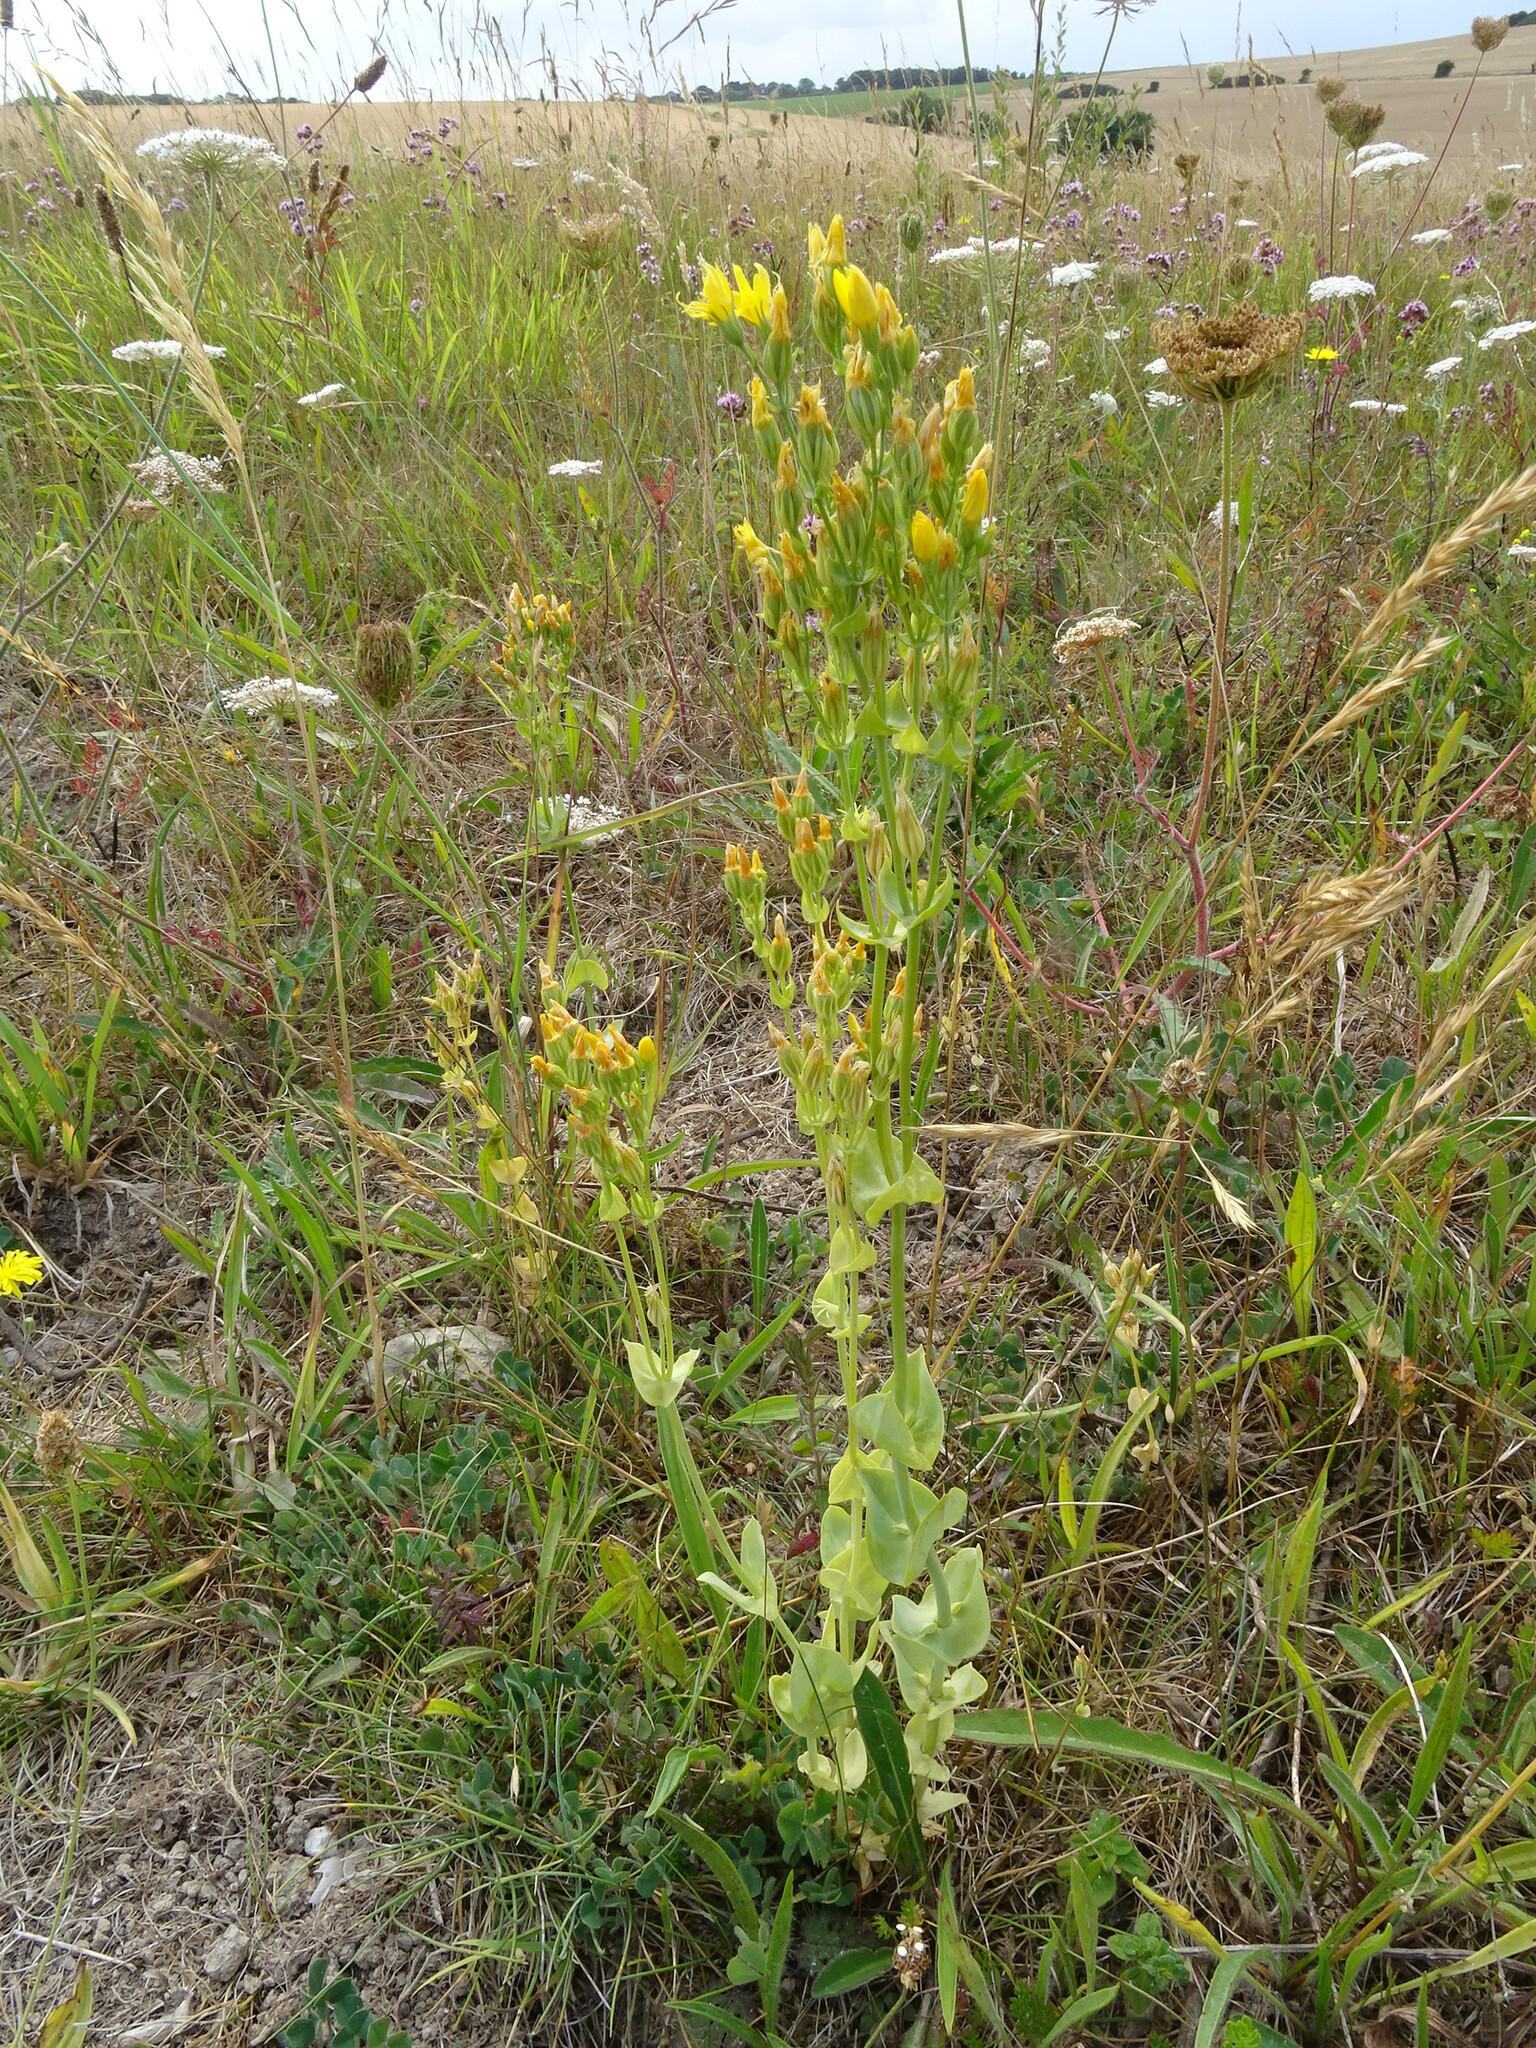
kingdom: Plantae
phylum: Tracheophyta
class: Magnoliopsida
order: Gentianales
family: Gentianaceae
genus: Blackstonia
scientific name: Blackstonia perfoliata
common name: Yellow-wort
